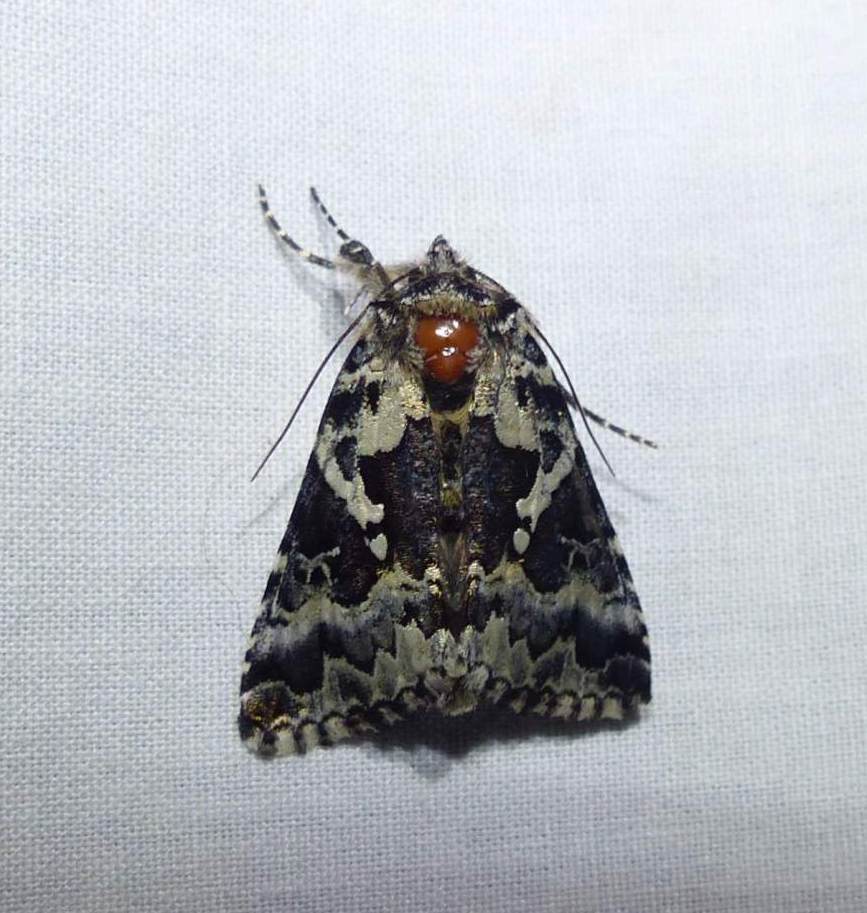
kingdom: Animalia
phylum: Arthropoda
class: Insecta
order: Lepidoptera
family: Noctuidae
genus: Syngrapha
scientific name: Syngrapha rectangula
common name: Angulated cutworm
